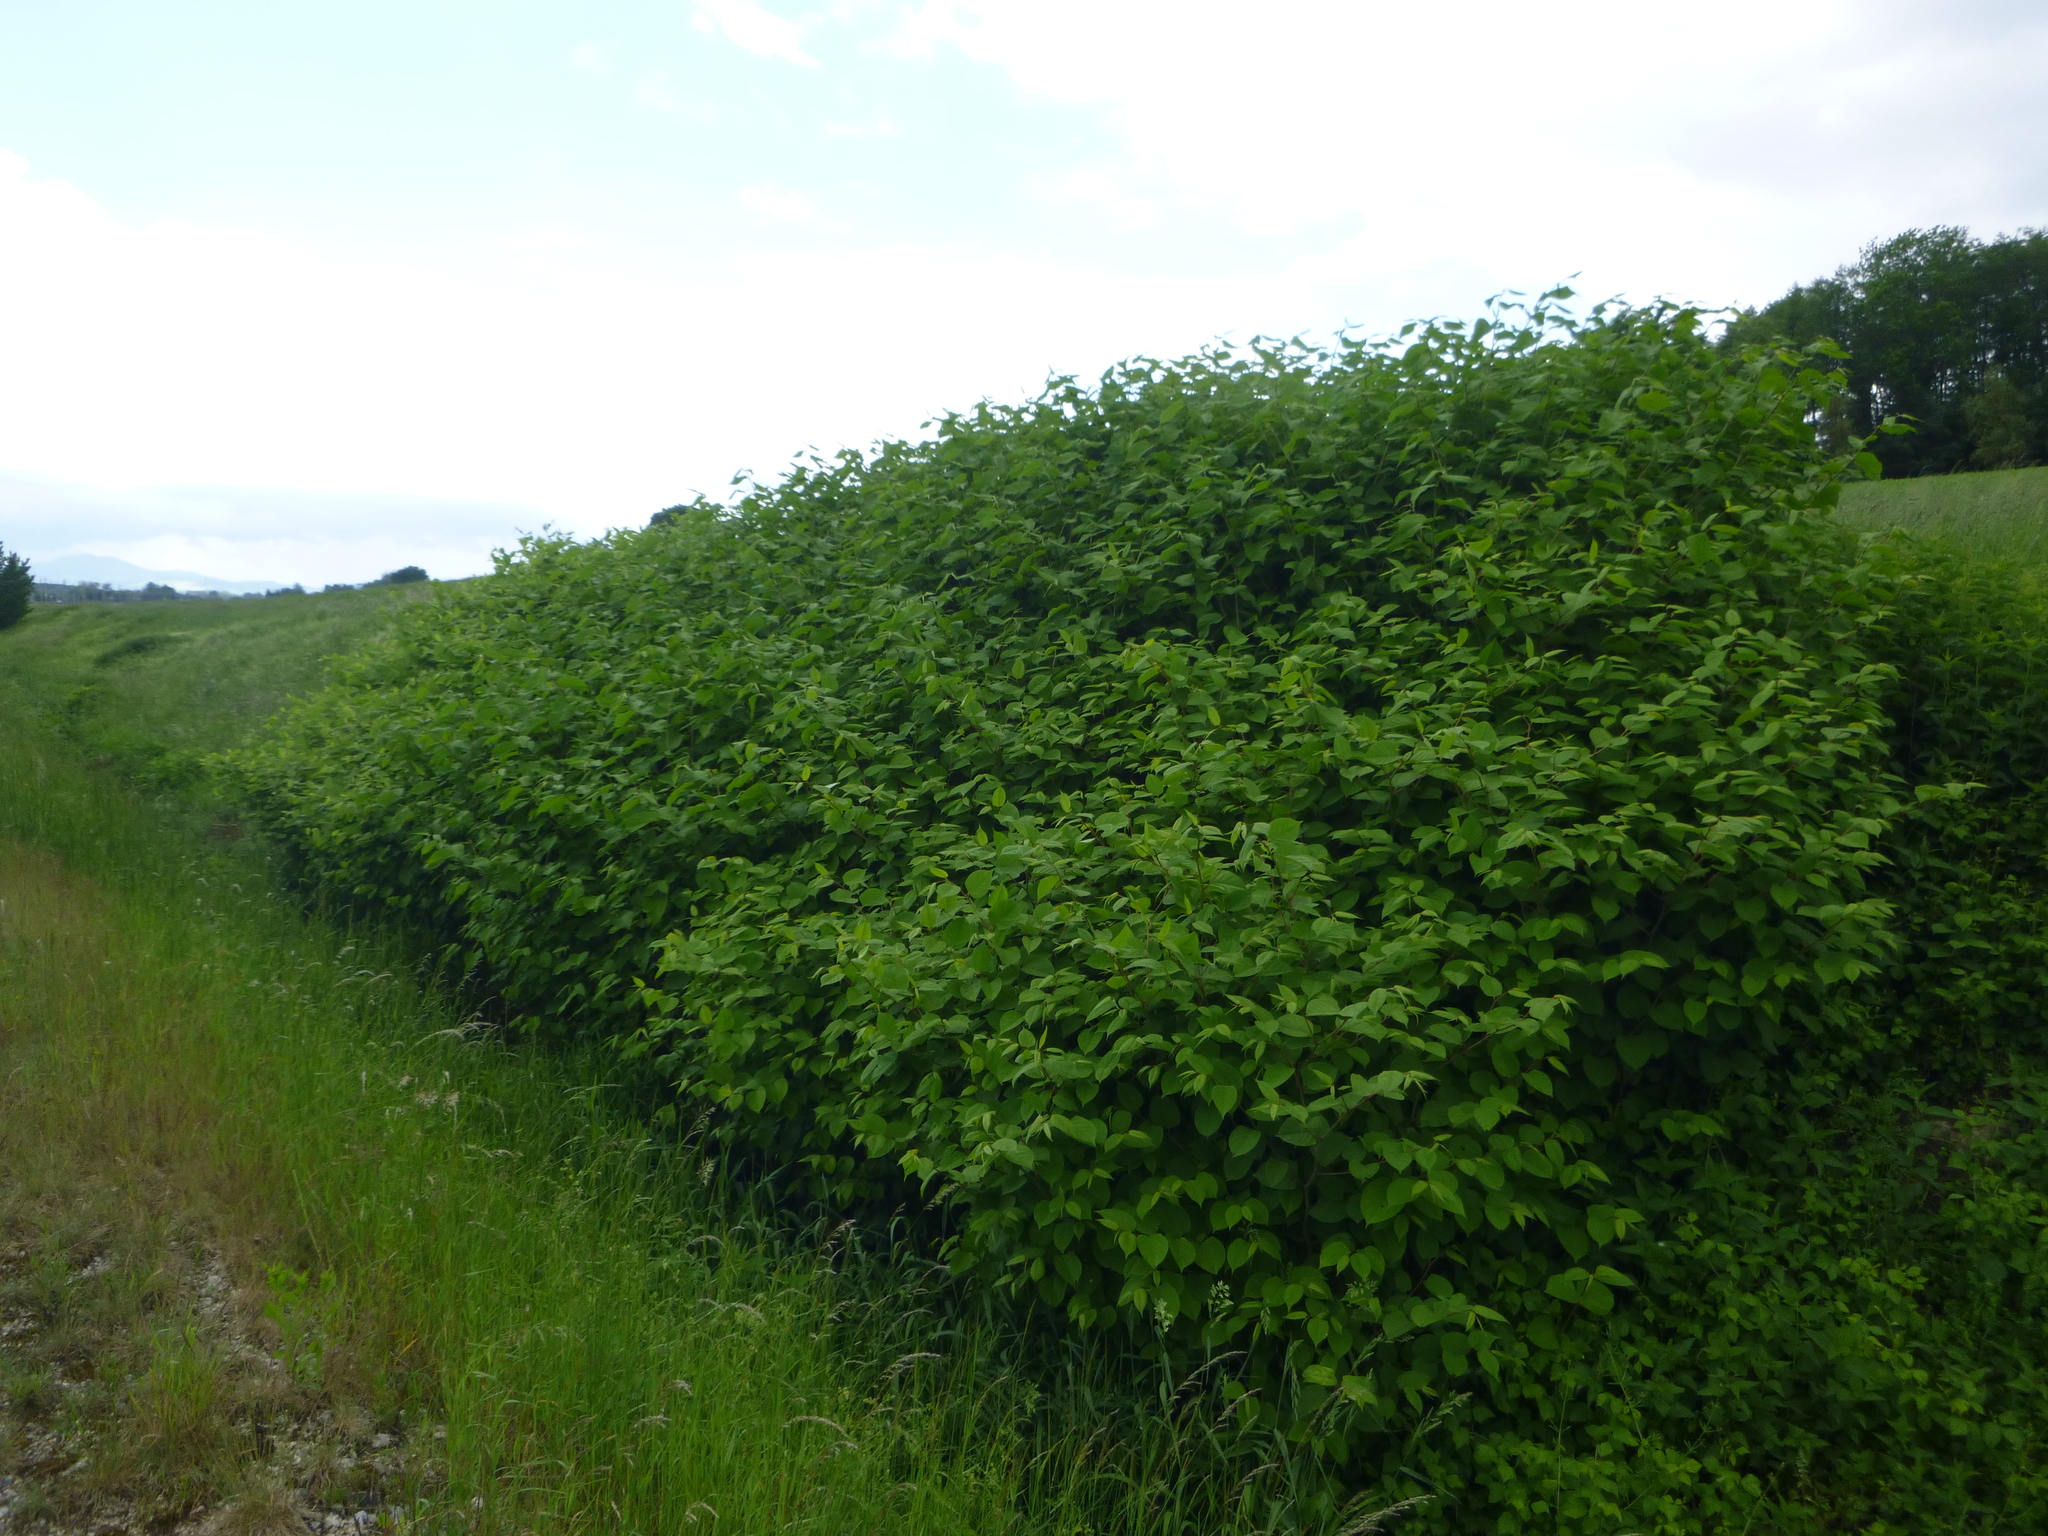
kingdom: Plantae
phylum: Tracheophyta
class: Magnoliopsida
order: Caryophyllales
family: Polygonaceae
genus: Reynoutria
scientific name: Reynoutria japonica
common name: Japanese knotweed
